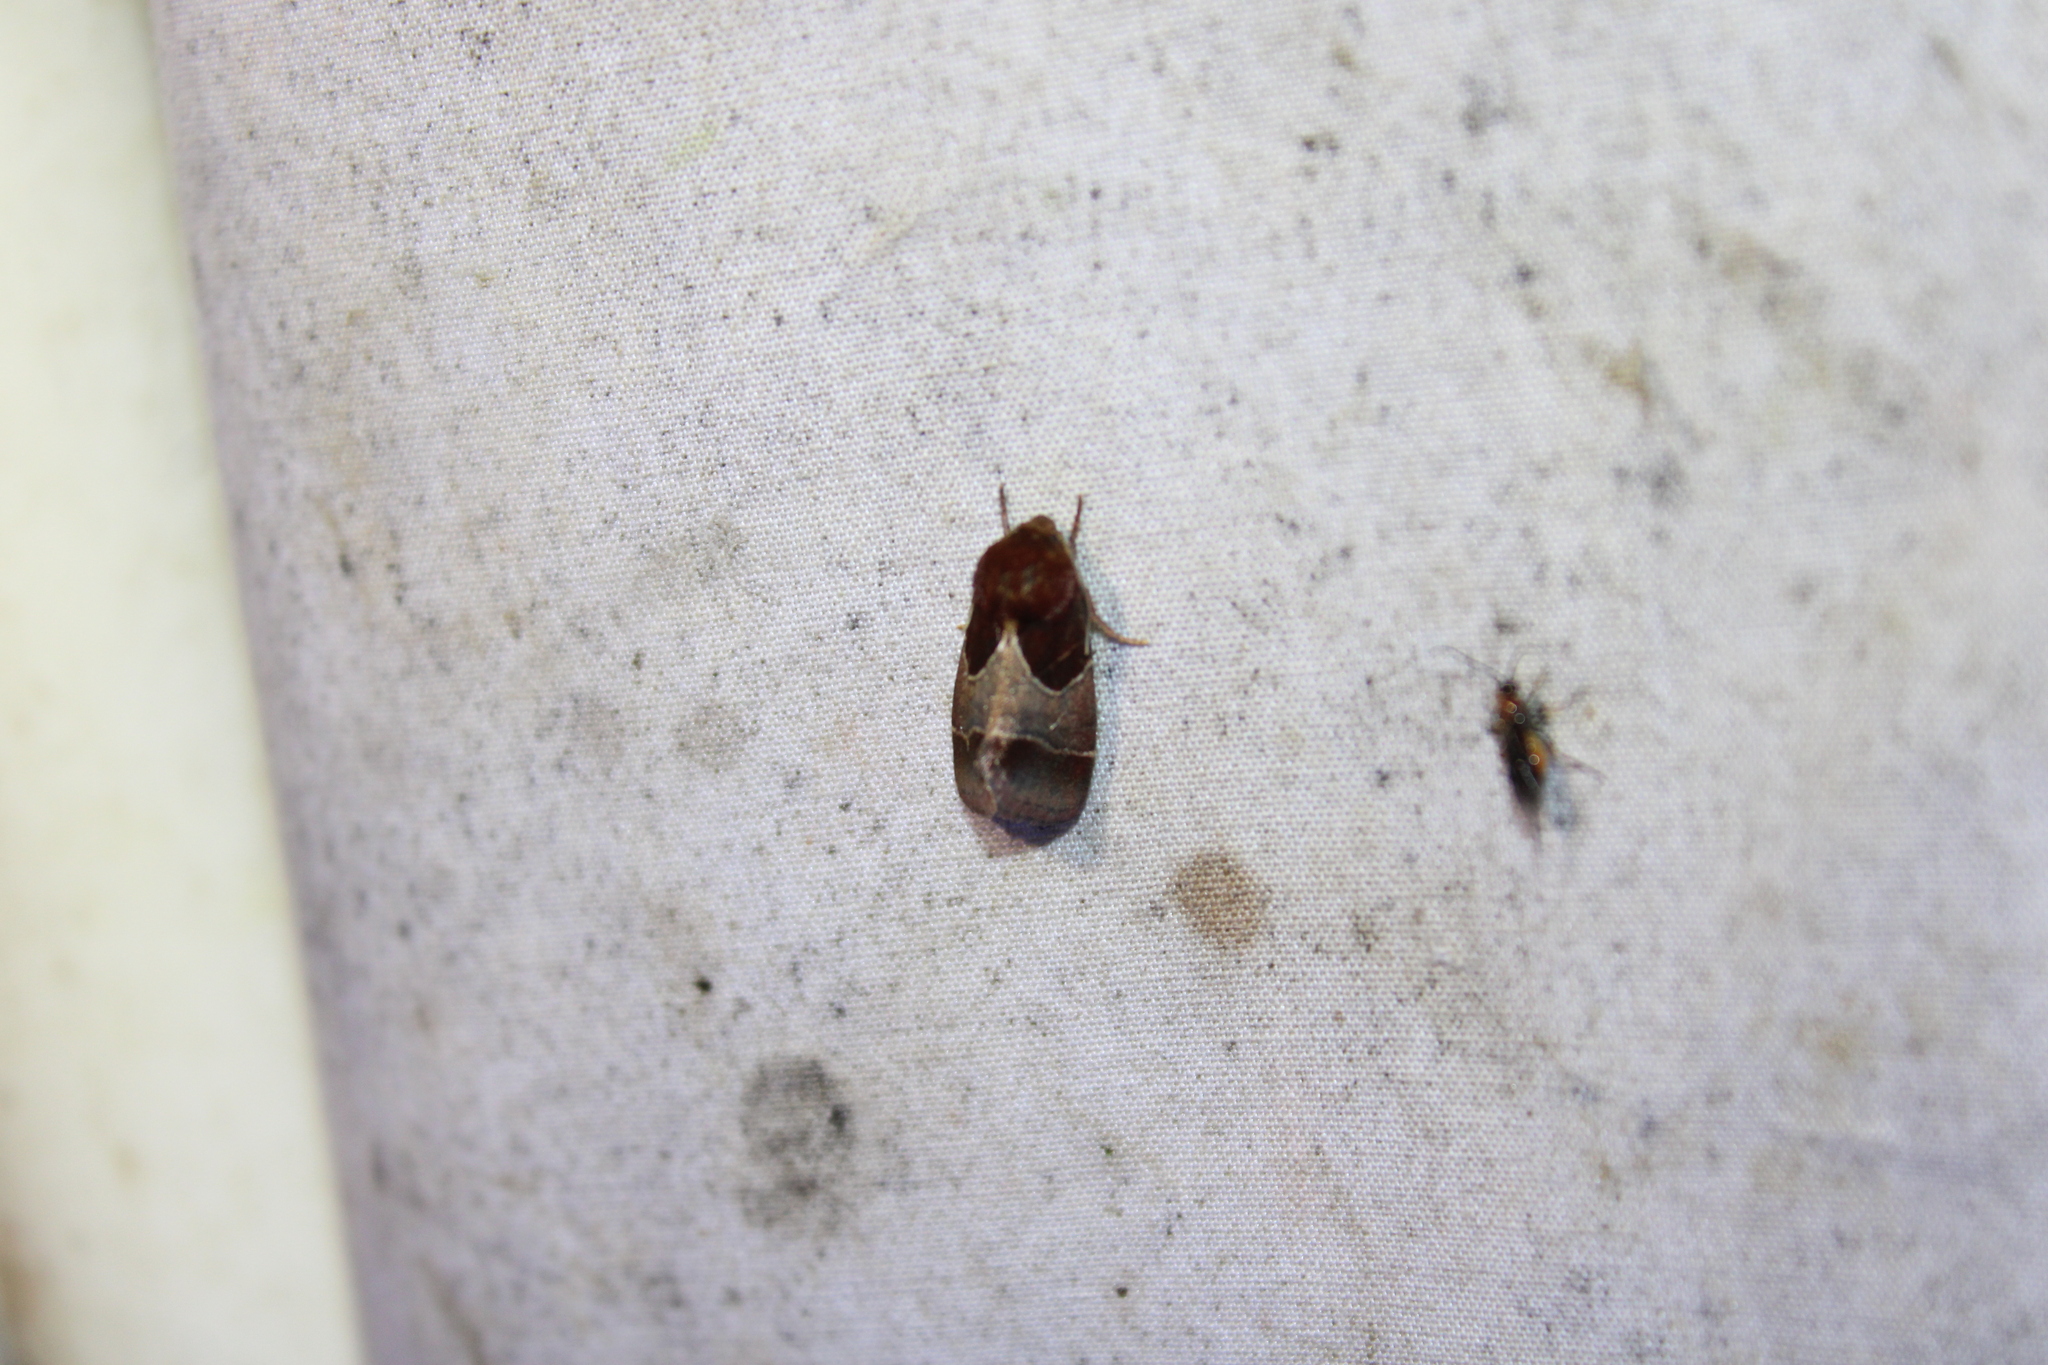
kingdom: Animalia
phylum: Arthropoda
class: Insecta
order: Lepidoptera
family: Noctuidae
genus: Schinia
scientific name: Schinia arcigera
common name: Arcigera flower moth
